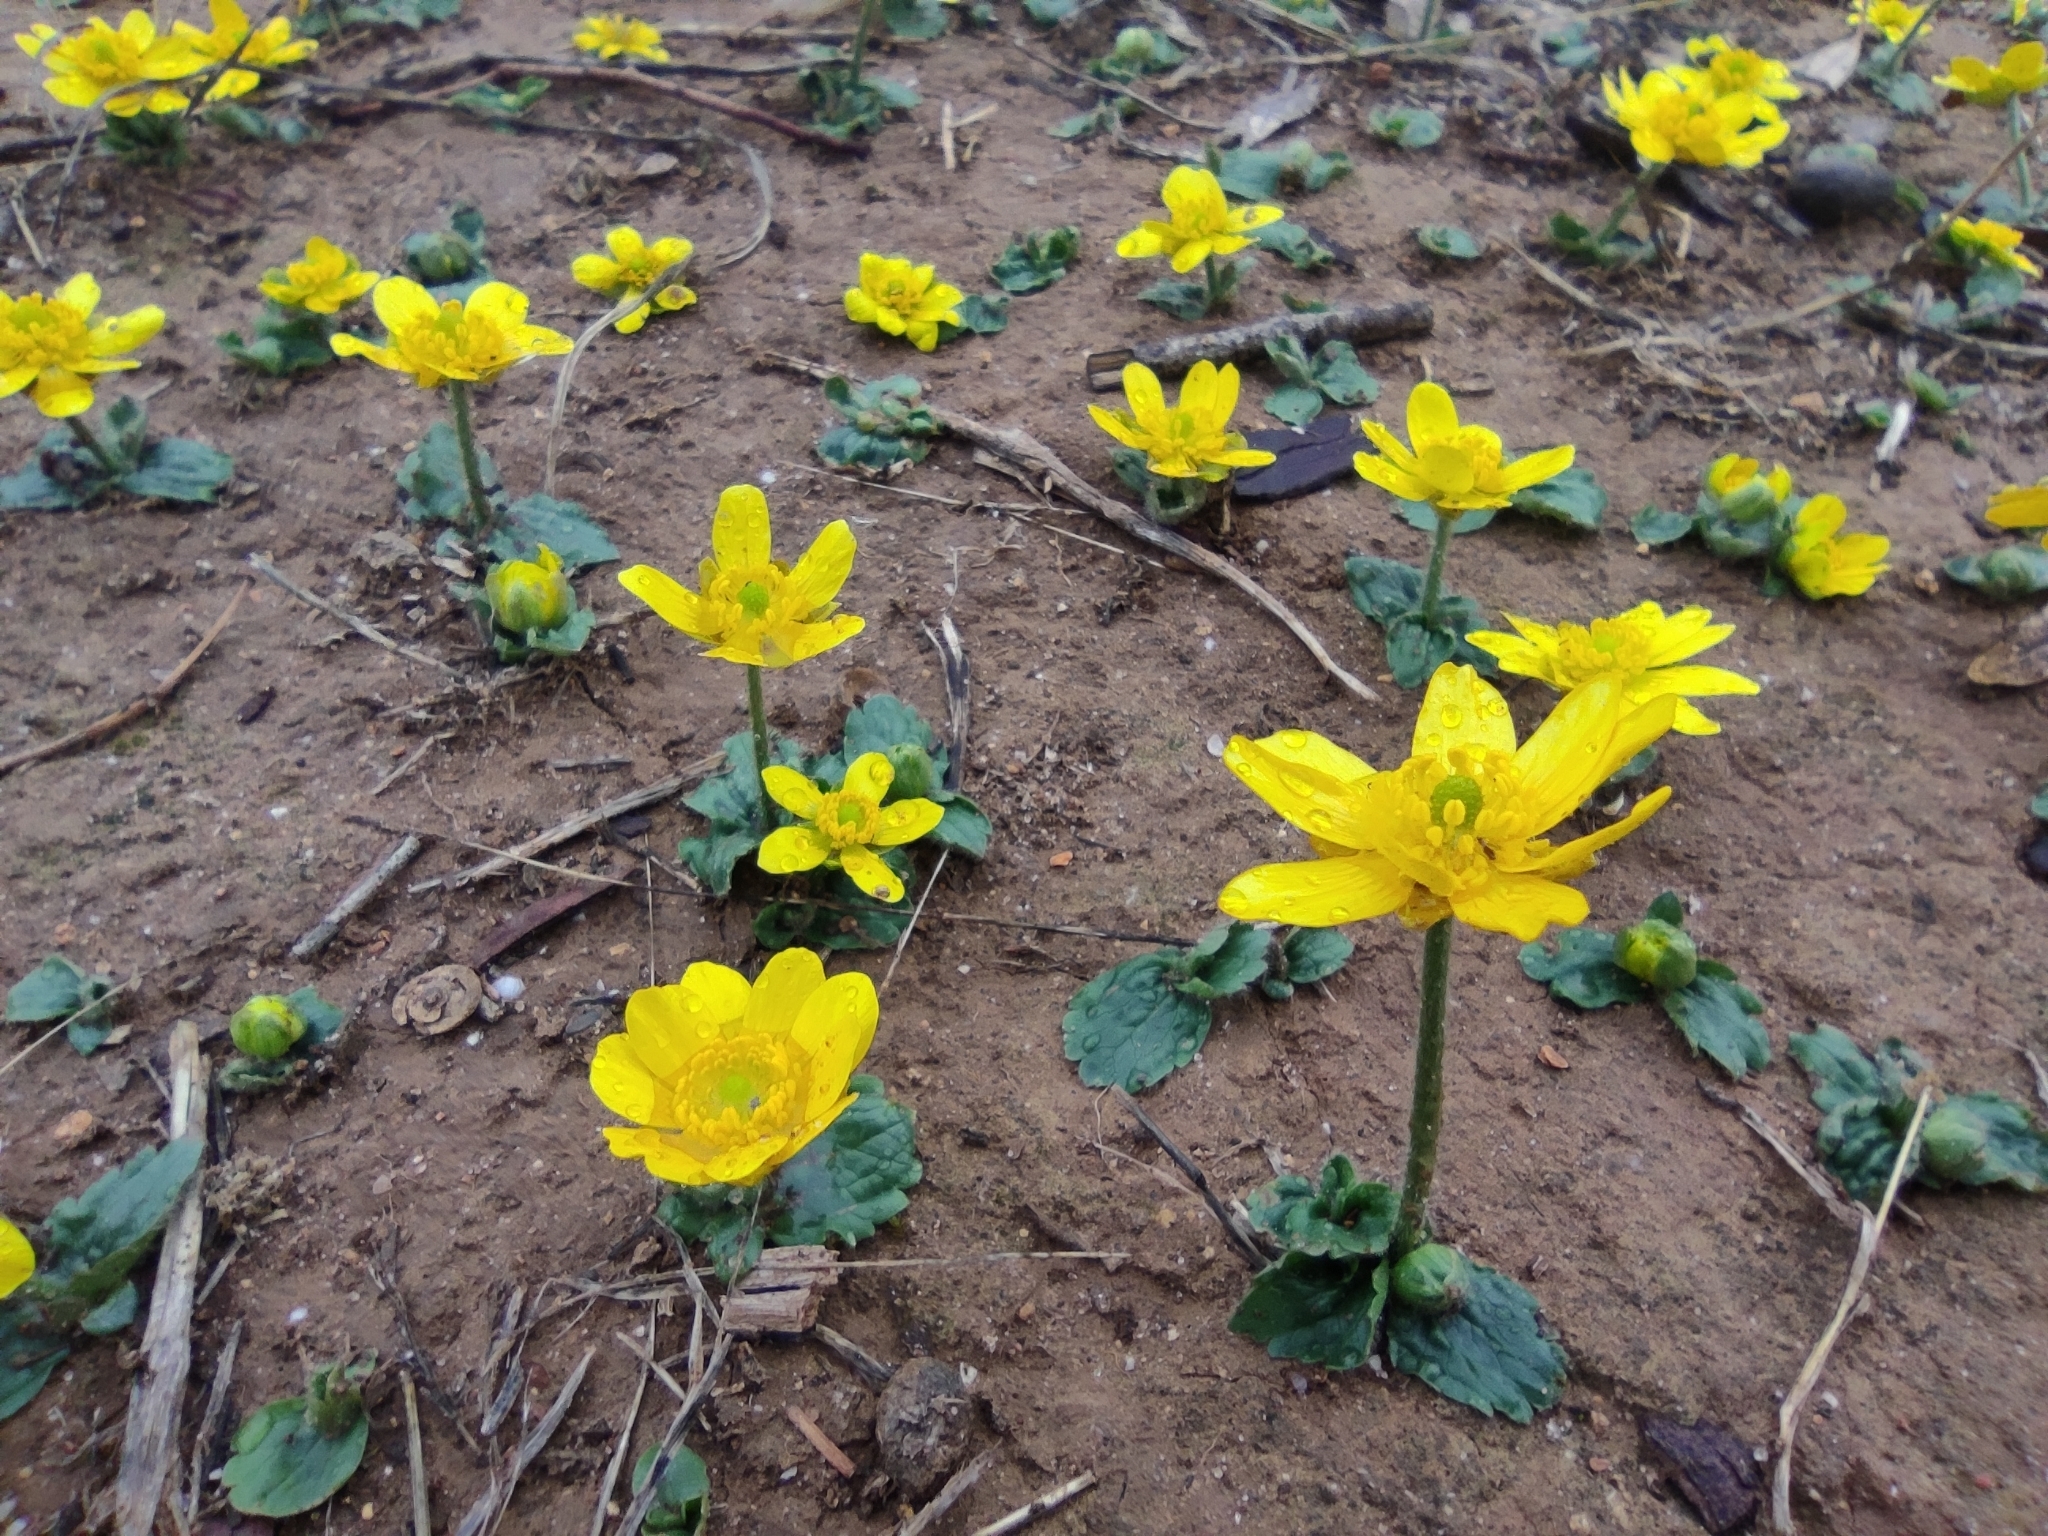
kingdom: Plantae
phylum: Tracheophyta
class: Magnoliopsida
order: Ranunculales
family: Ranunculaceae
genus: Ranunculus
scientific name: Ranunculus bullatus
